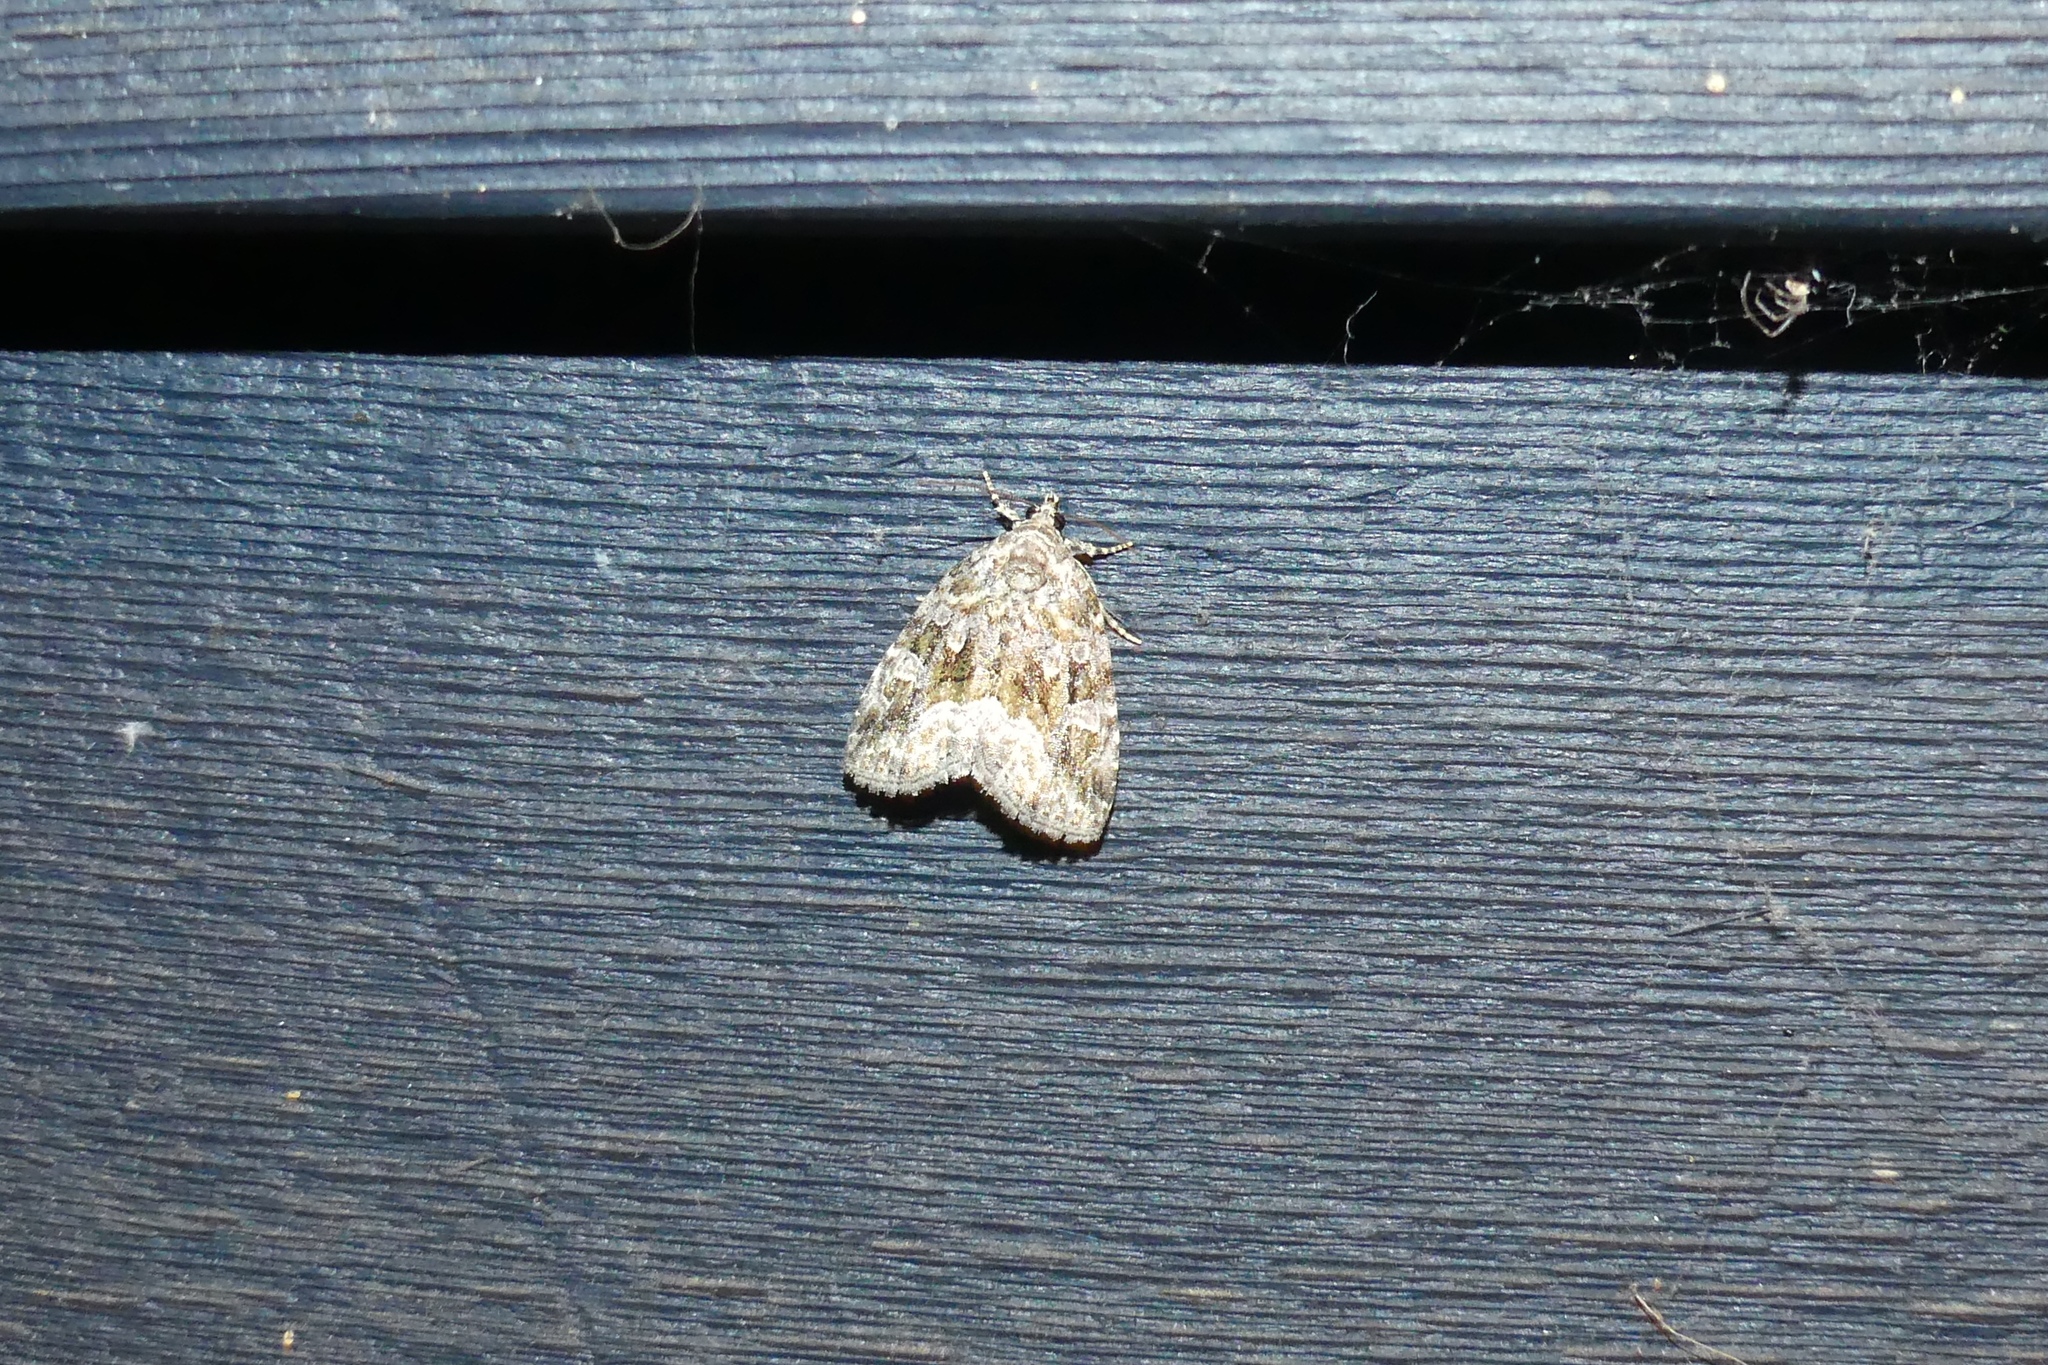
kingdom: Animalia
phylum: Arthropoda
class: Insecta
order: Lepidoptera
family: Noctuidae
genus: Protodeltote
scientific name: Protodeltote muscosula
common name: Large mossy glyph
